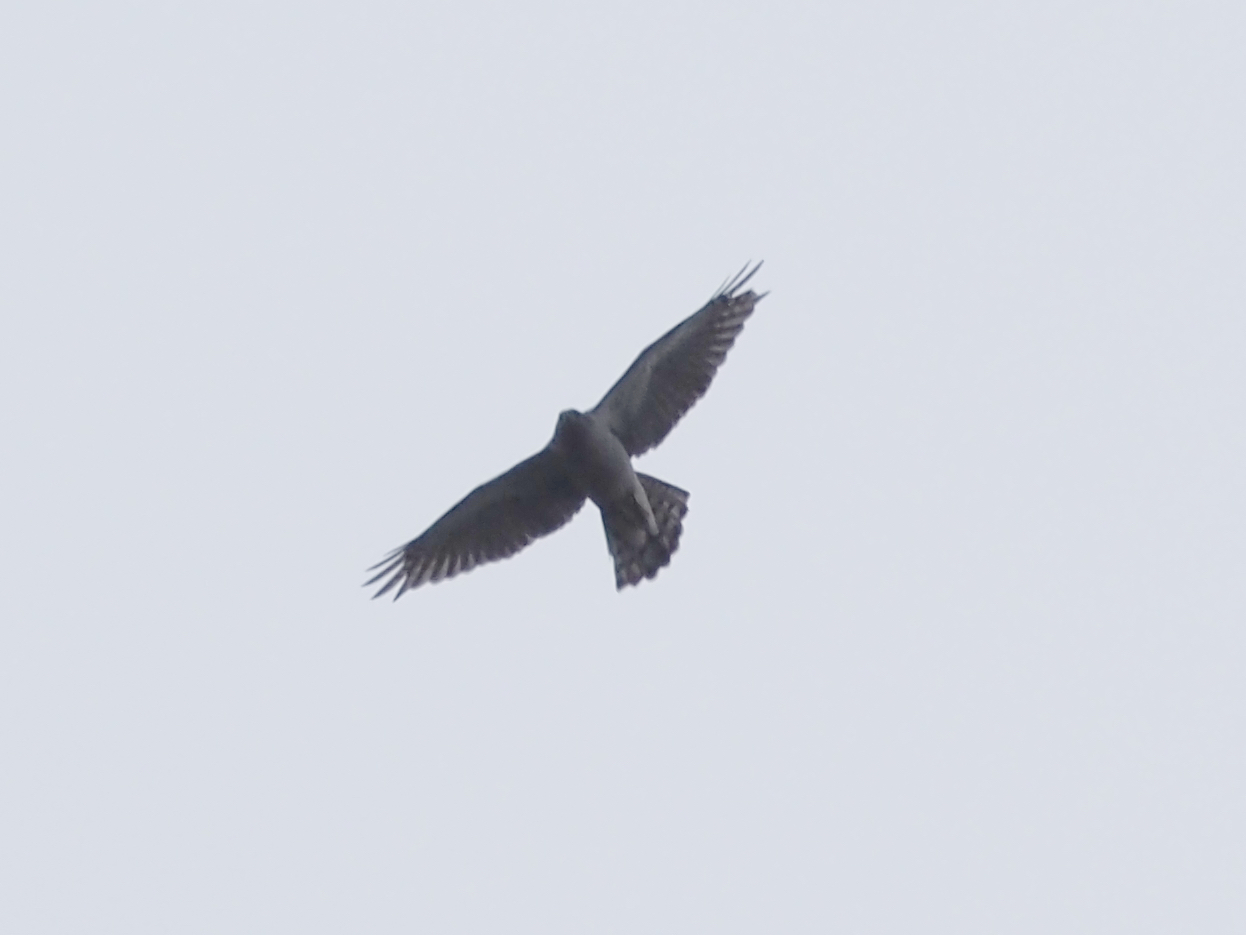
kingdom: Animalia
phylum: Chordata
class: Aves
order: Accipitriformes
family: Accipitridae
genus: Accipiter
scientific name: Accipiter gentilis
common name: Northern goshawk
